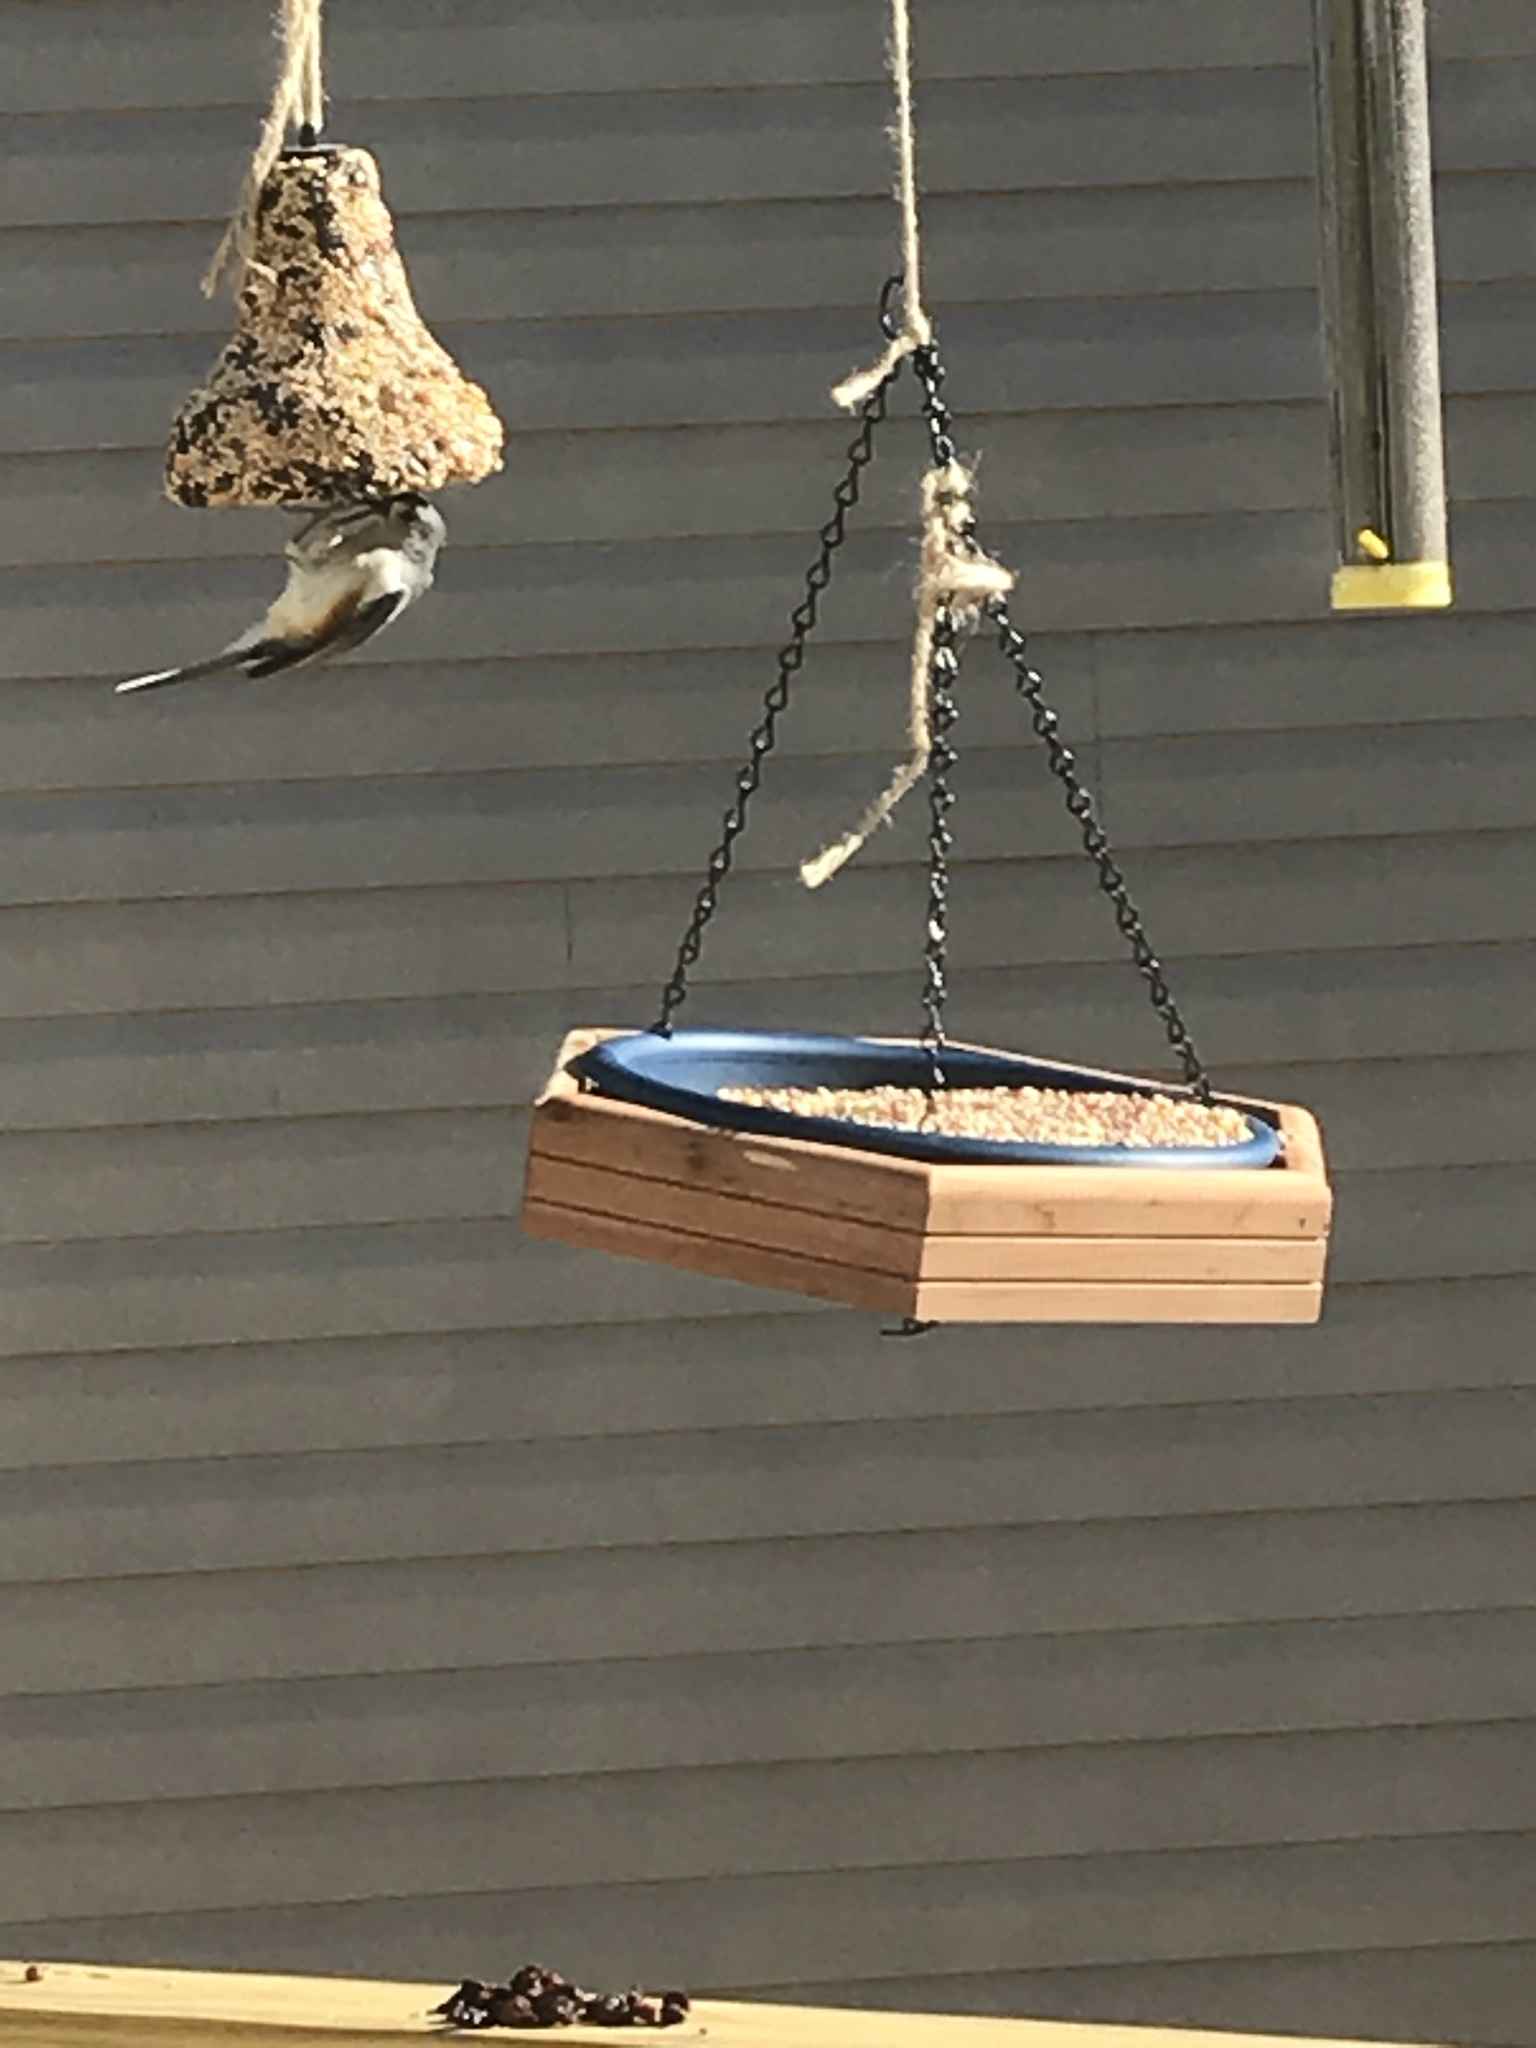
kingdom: Animalia
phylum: Chordata
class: Aves
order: Passeriformes
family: Paridae
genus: Baeolophus
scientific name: Baeolophus bicolor
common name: Tufted titmouse
